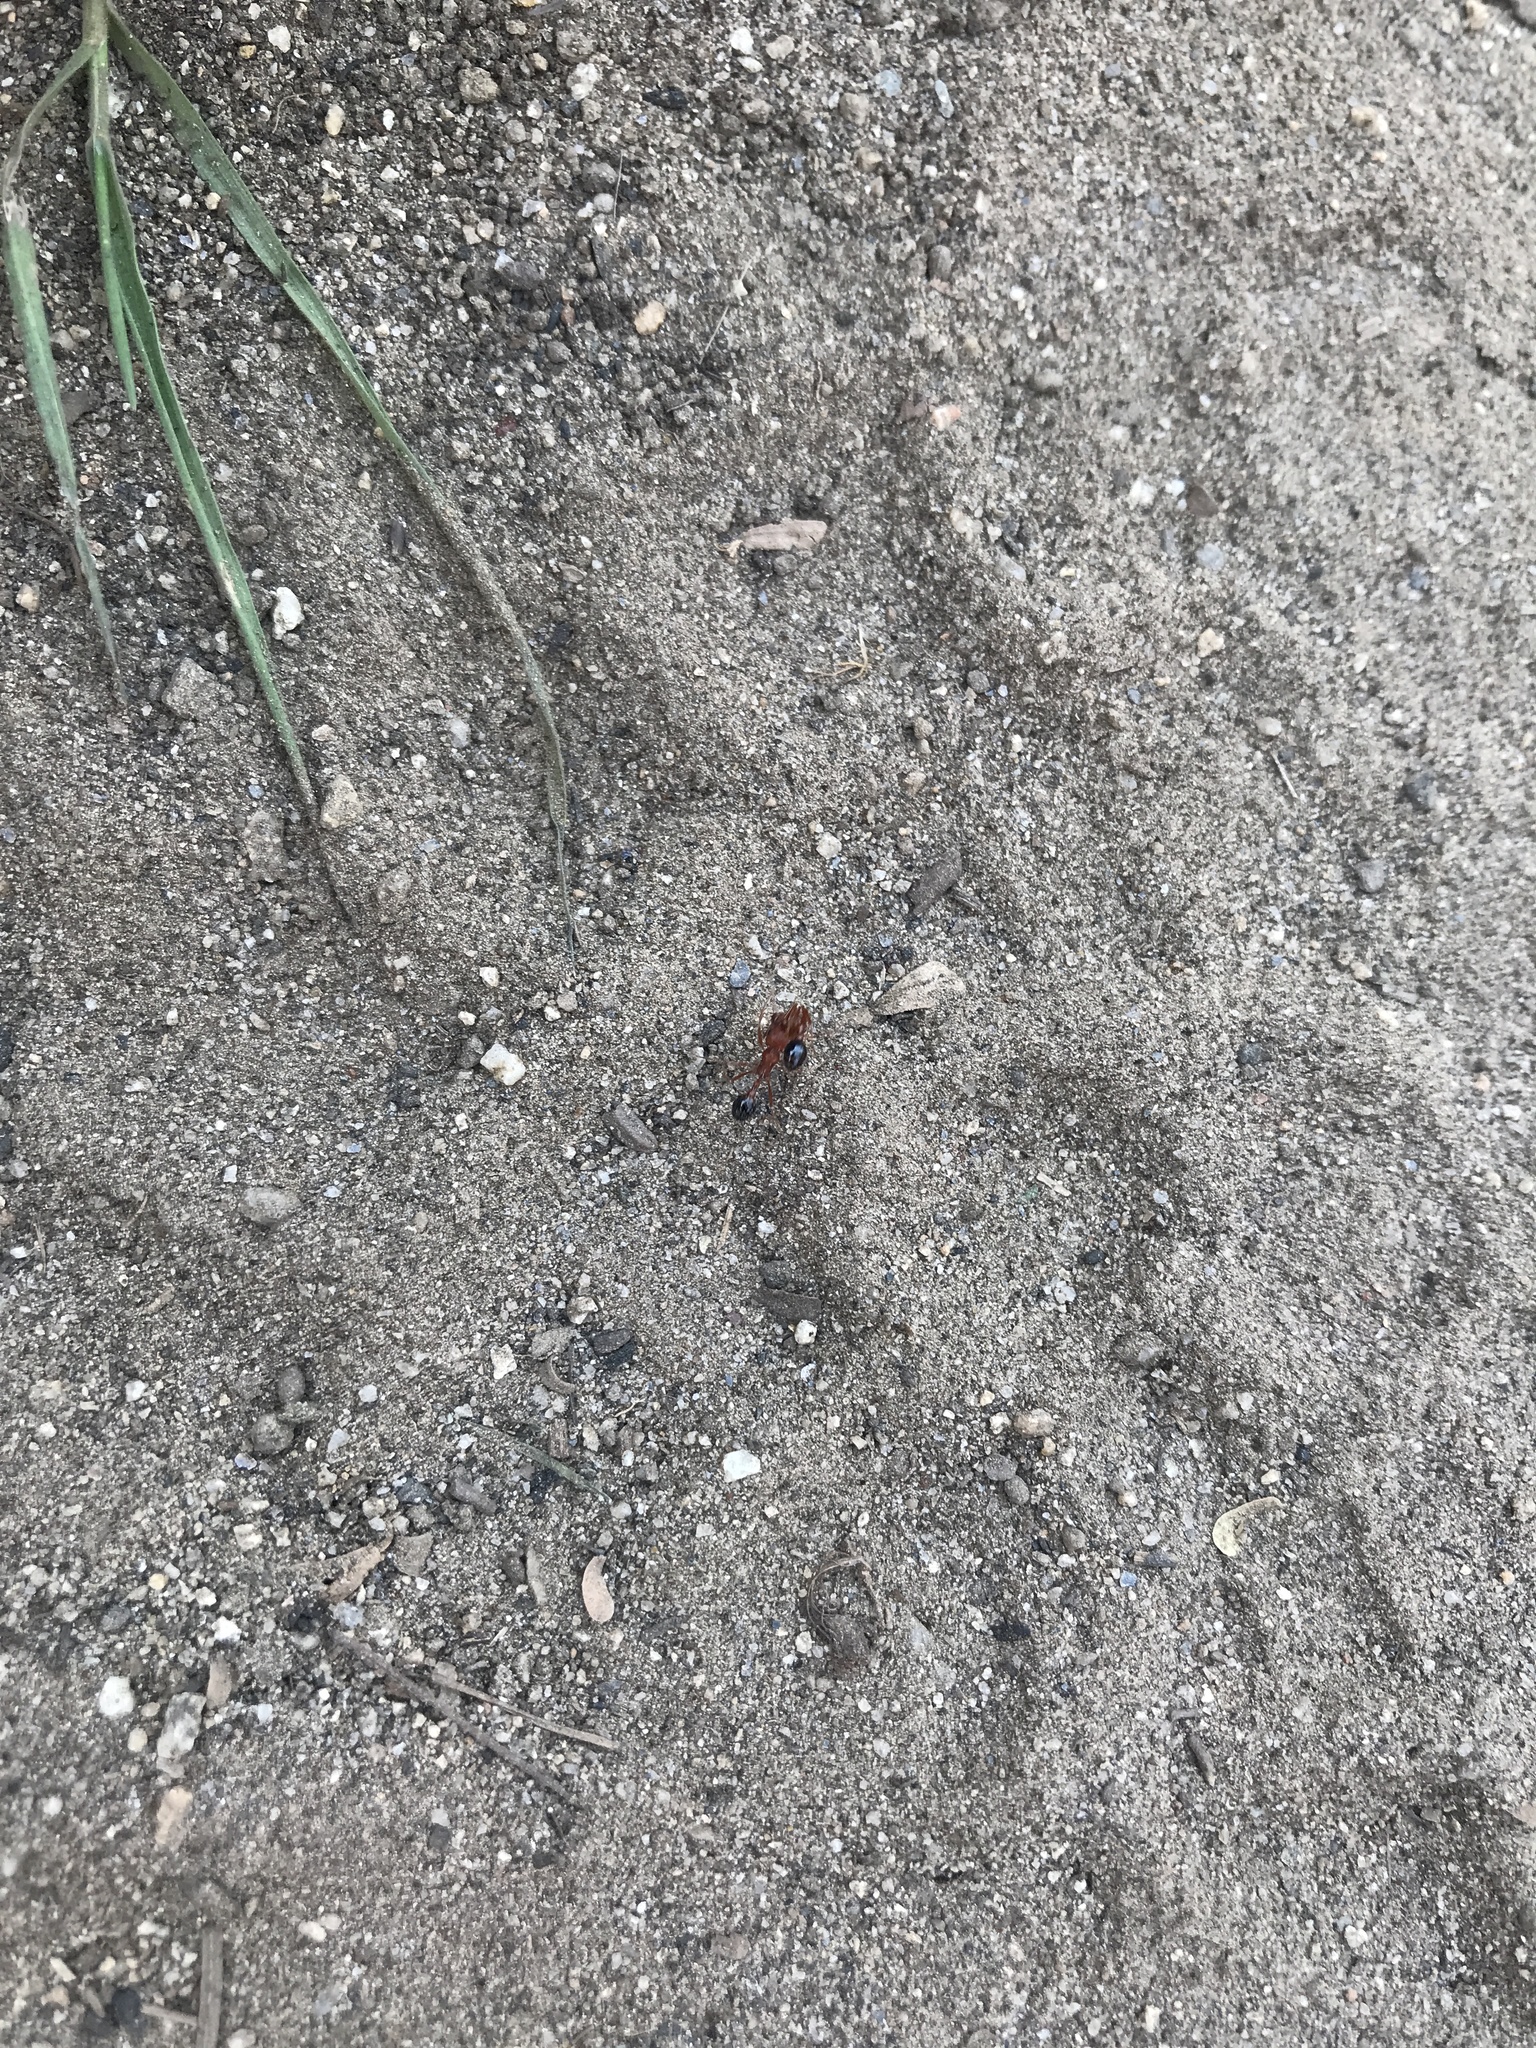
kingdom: Animalia
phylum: Arthropoda
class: Insecta
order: Hymenoptera
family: Formicidae
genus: Pogonomyrmex
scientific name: Pogonomyrmex californicus
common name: California harvester ant
